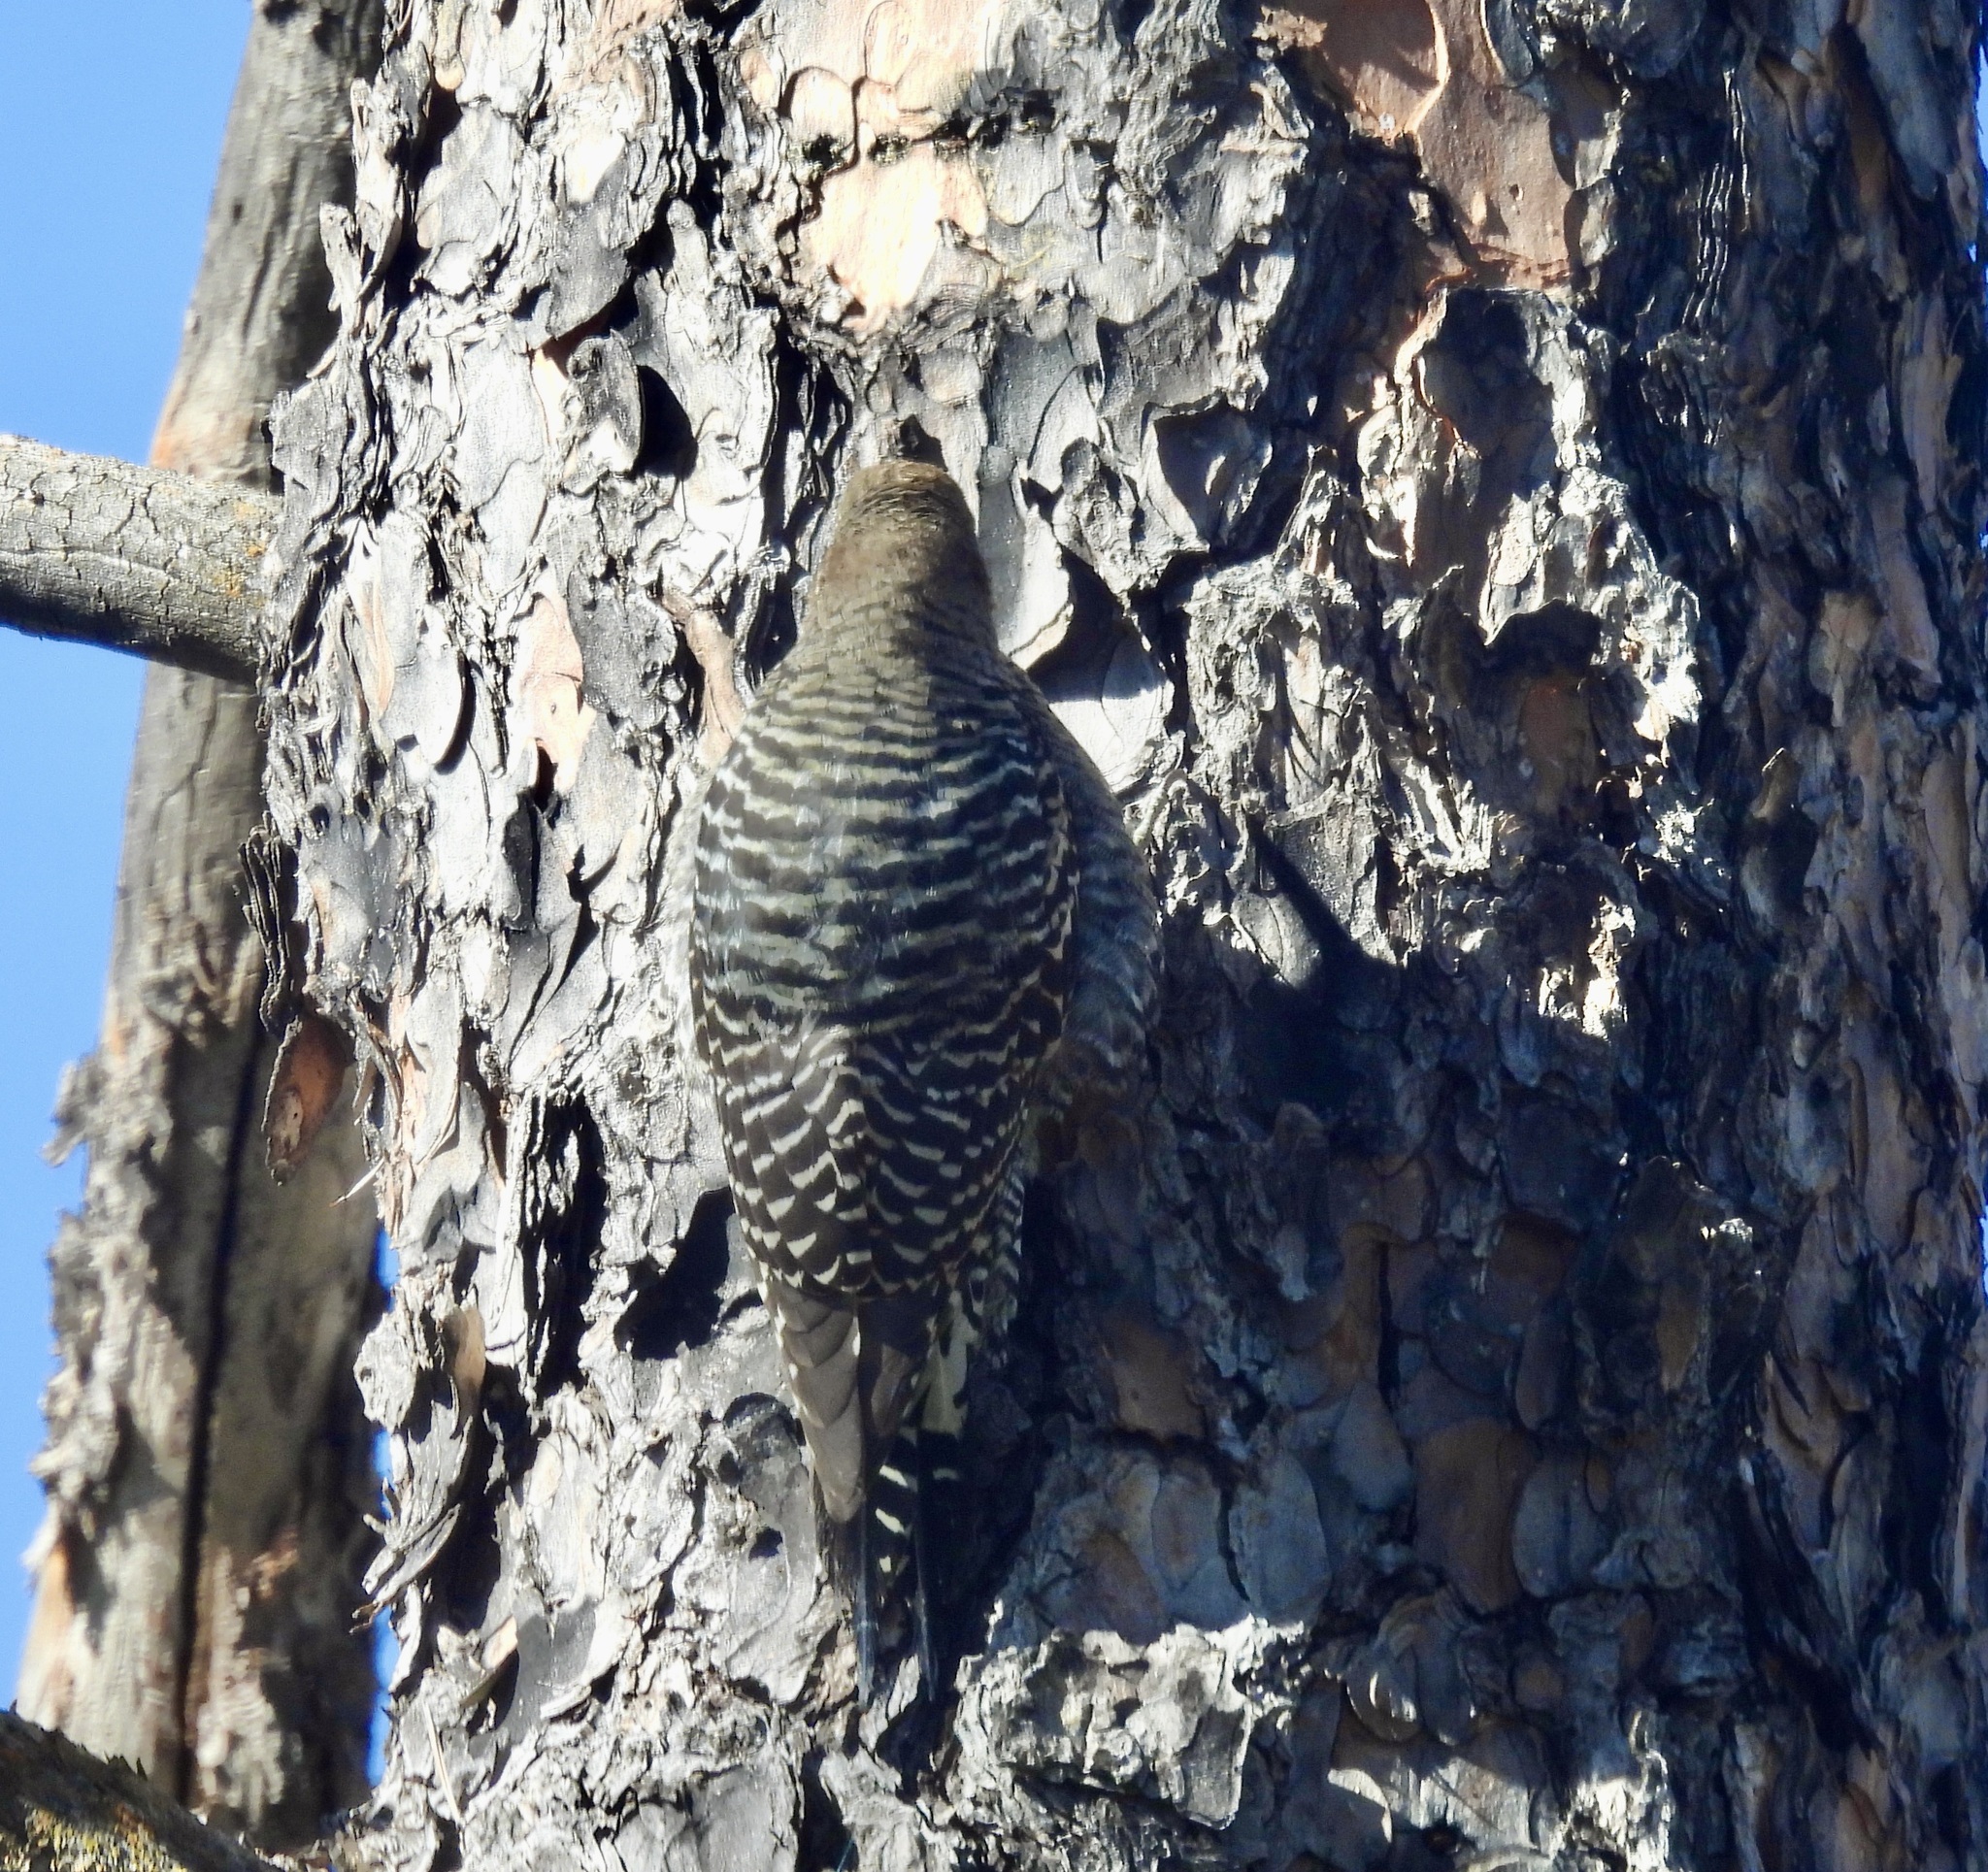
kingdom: Animalia
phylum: Chordata
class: Aves
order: Piciformes
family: Picidae
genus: Sphyrapicus
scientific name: Sphyrapicus thyroideus
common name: Williamson's sapsucker
